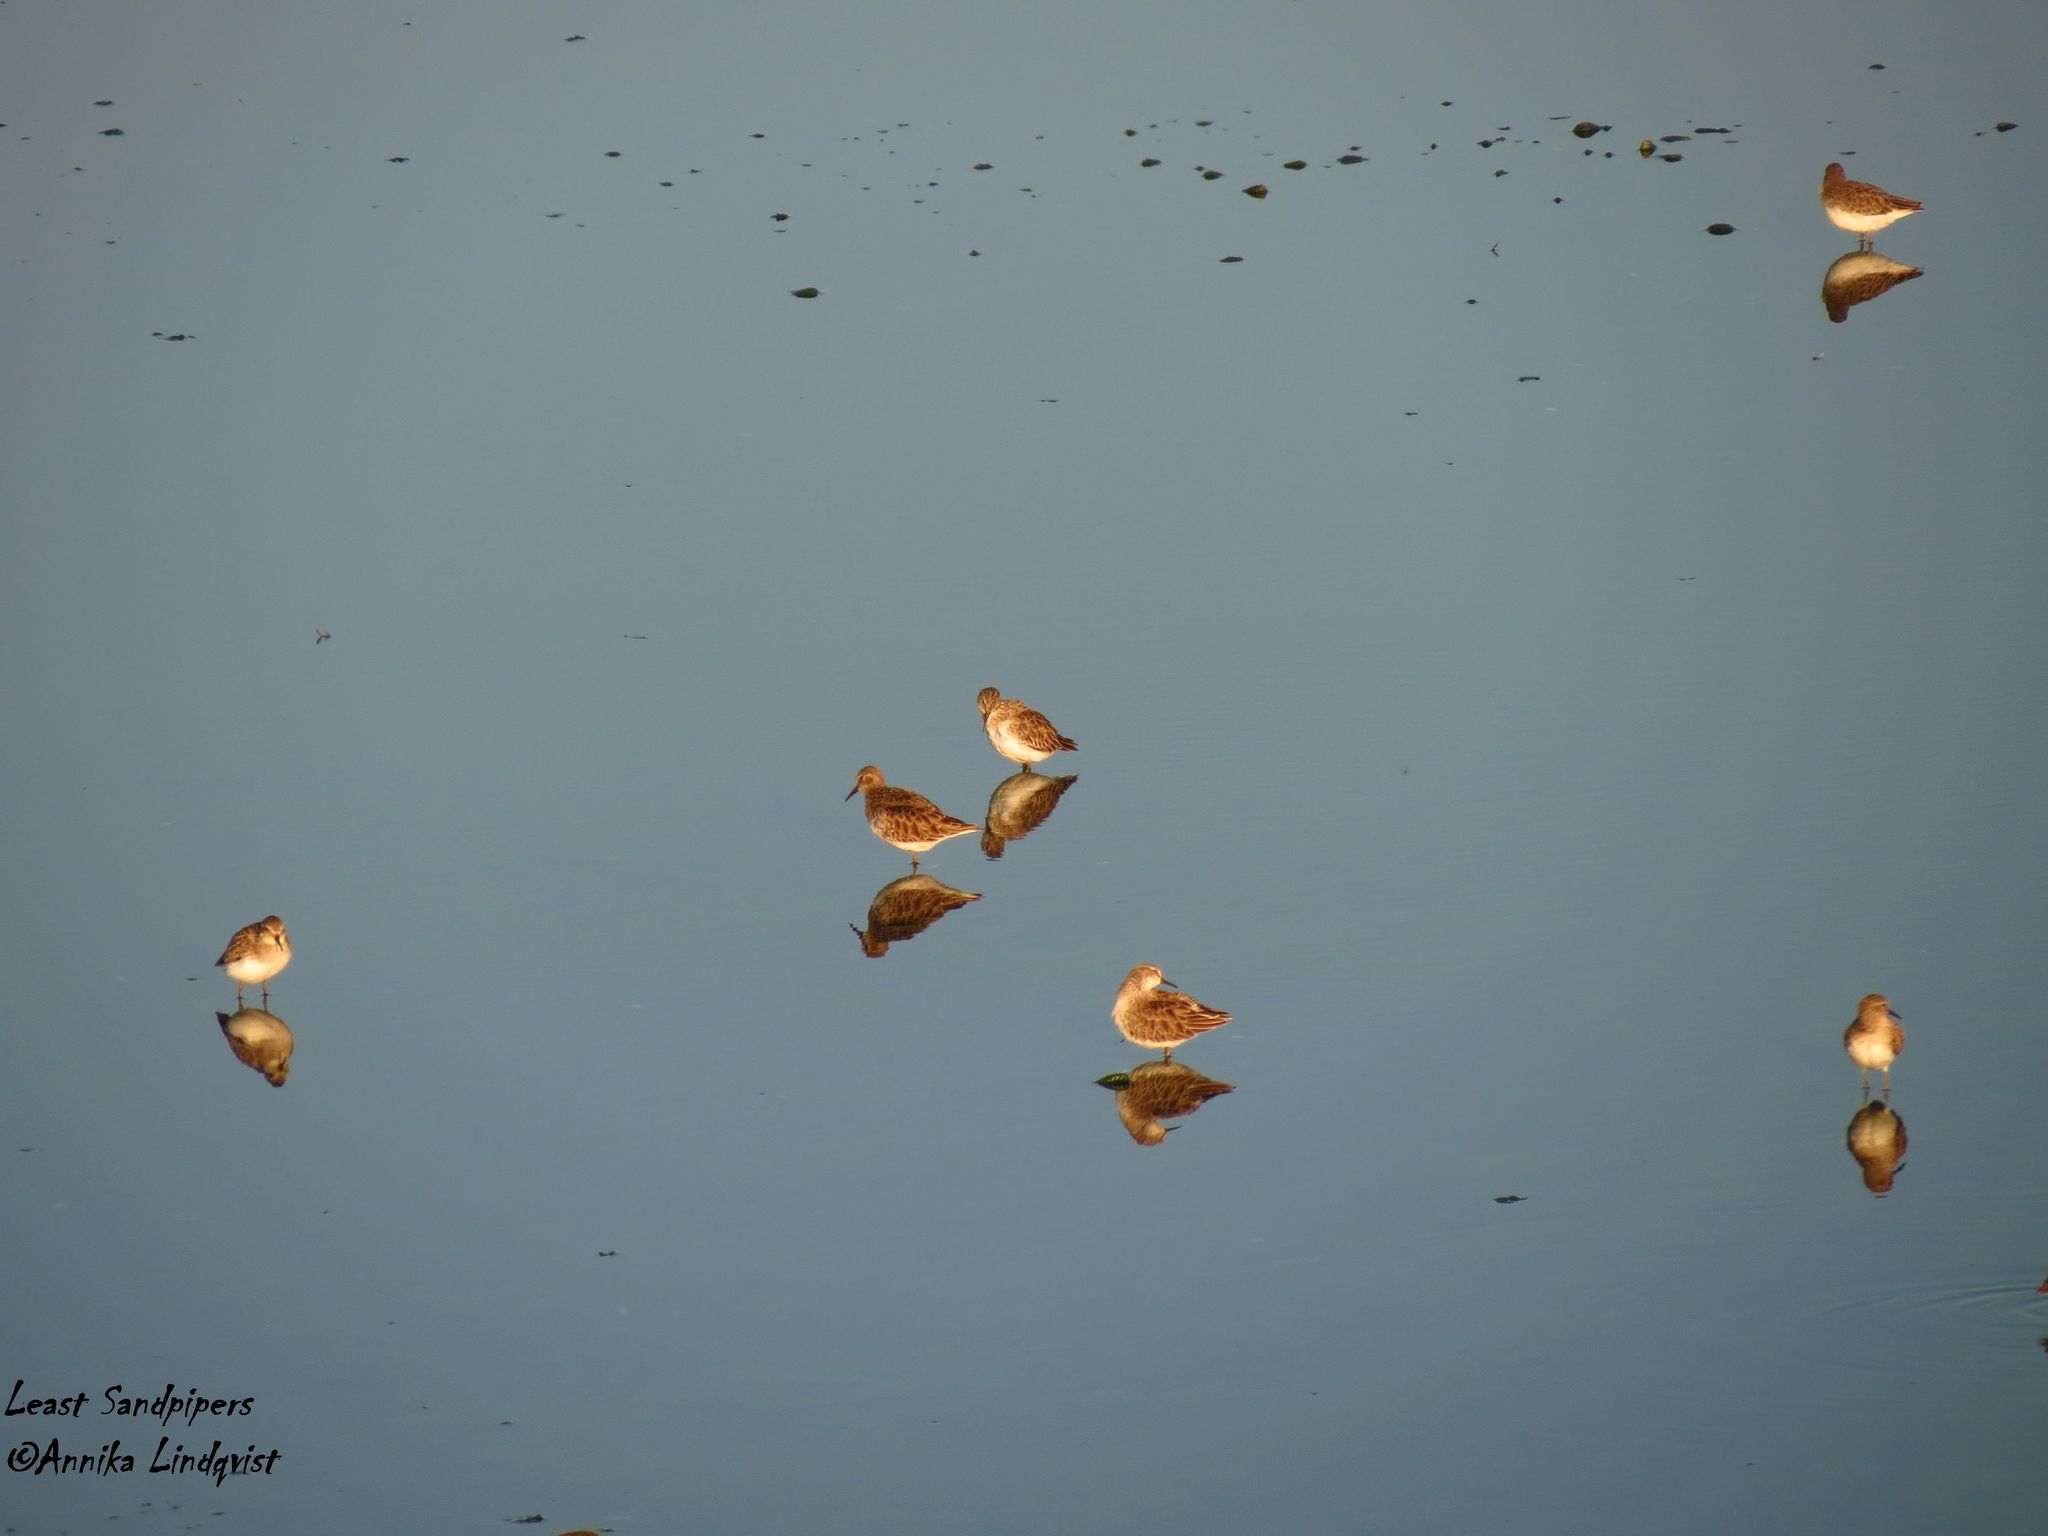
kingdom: Animalia
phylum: Chordata
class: Aves
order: Charadriiformes
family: Scolopacidae
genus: Calidris
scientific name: Calidris minutilla
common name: Least sandpiper
